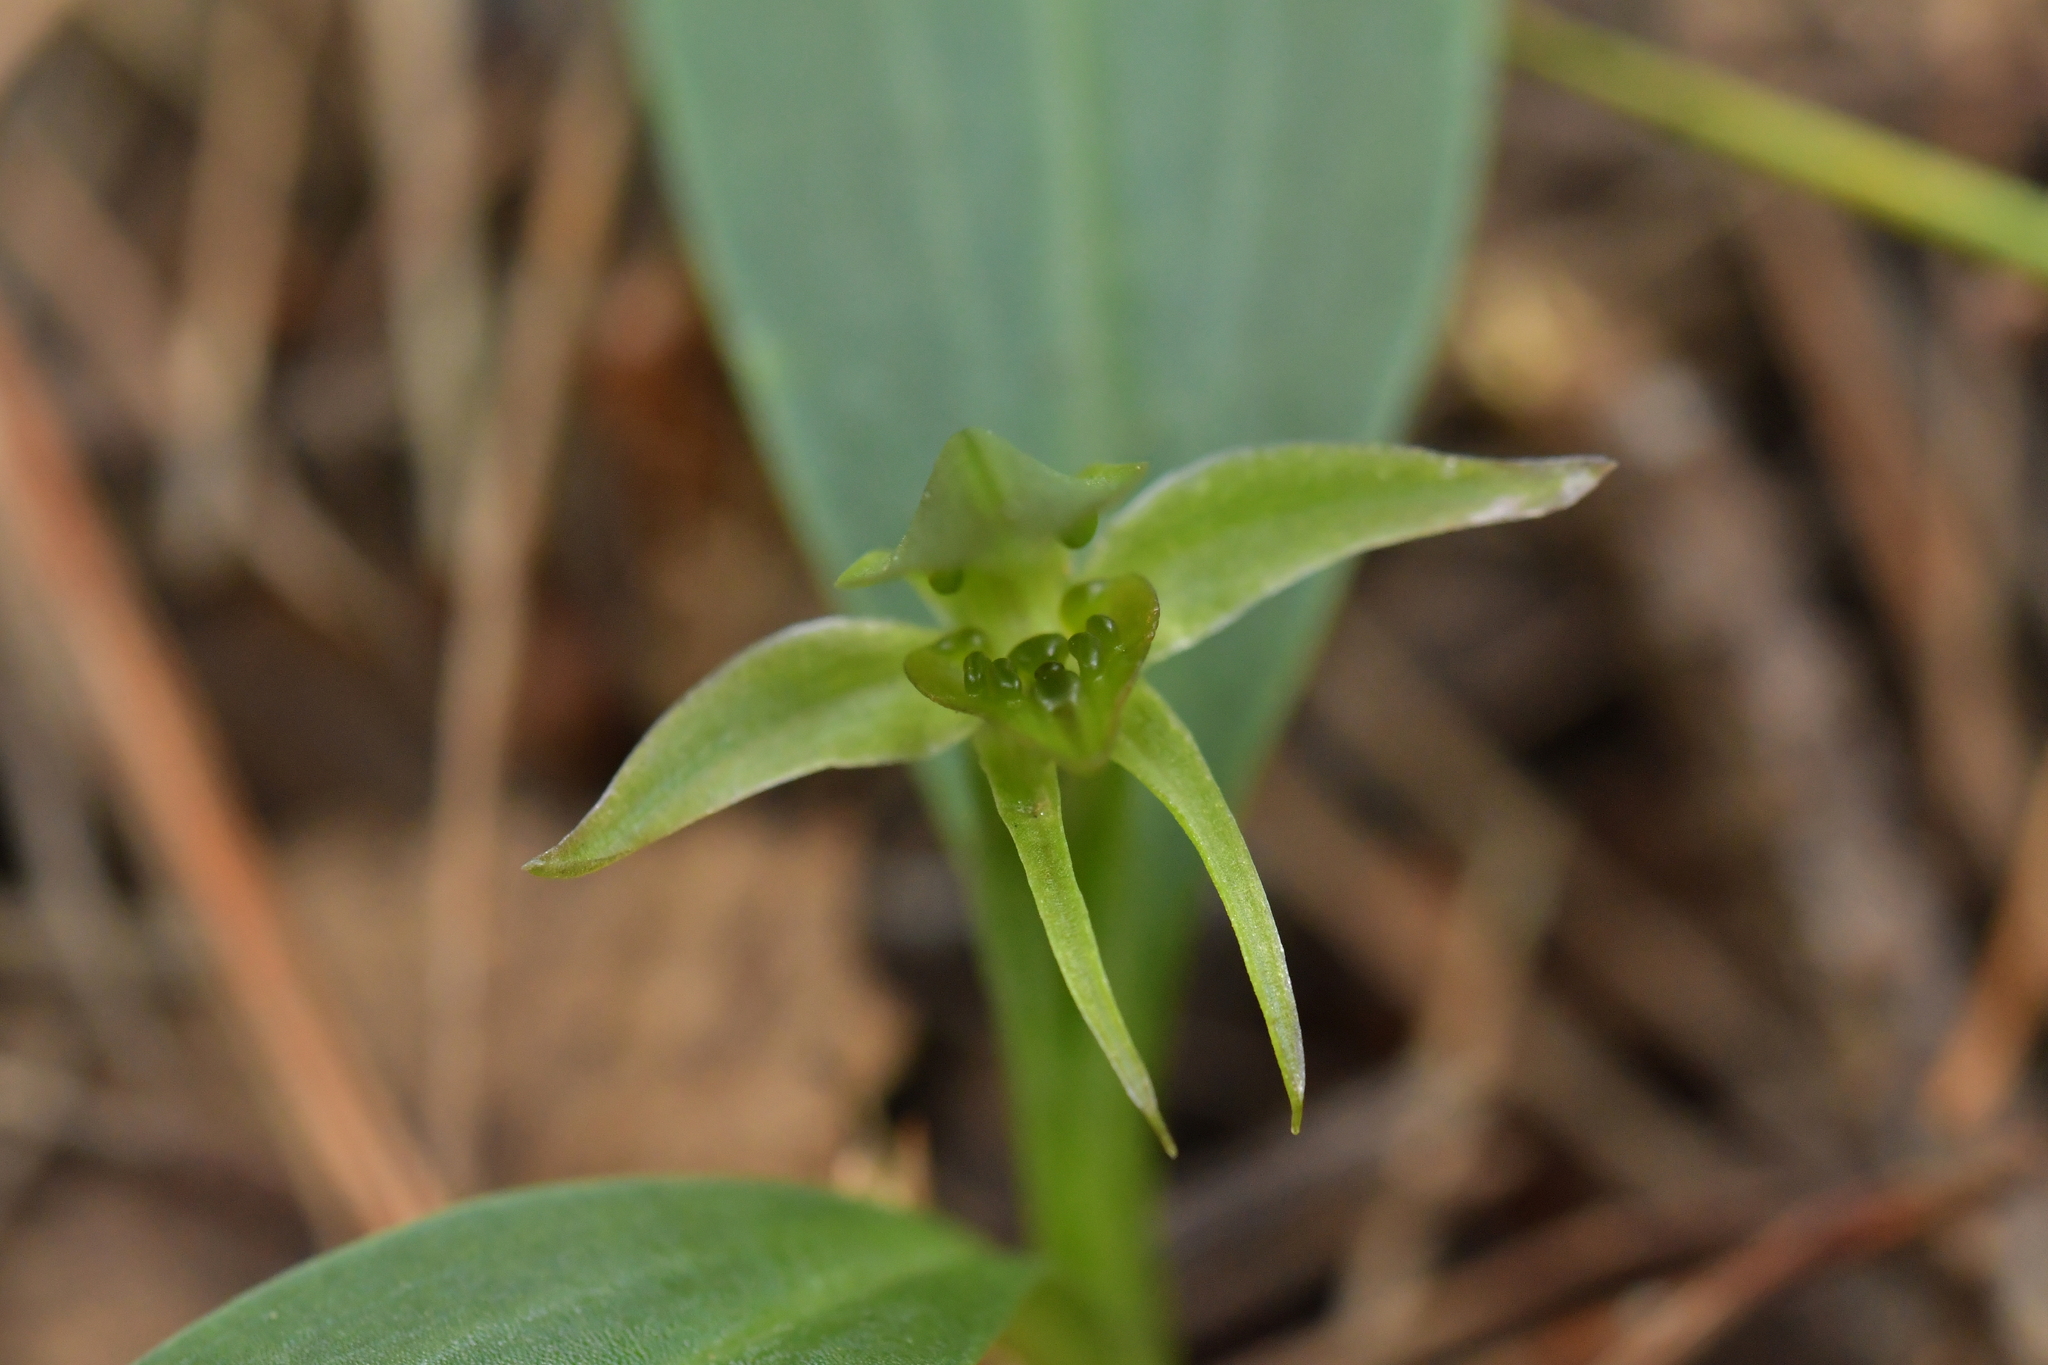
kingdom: Plantae
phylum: Tracheophyta
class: Liliopsida
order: Asparagales
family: Orchidaceae
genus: Chiloglottis
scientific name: Chiloglottis cornuta
